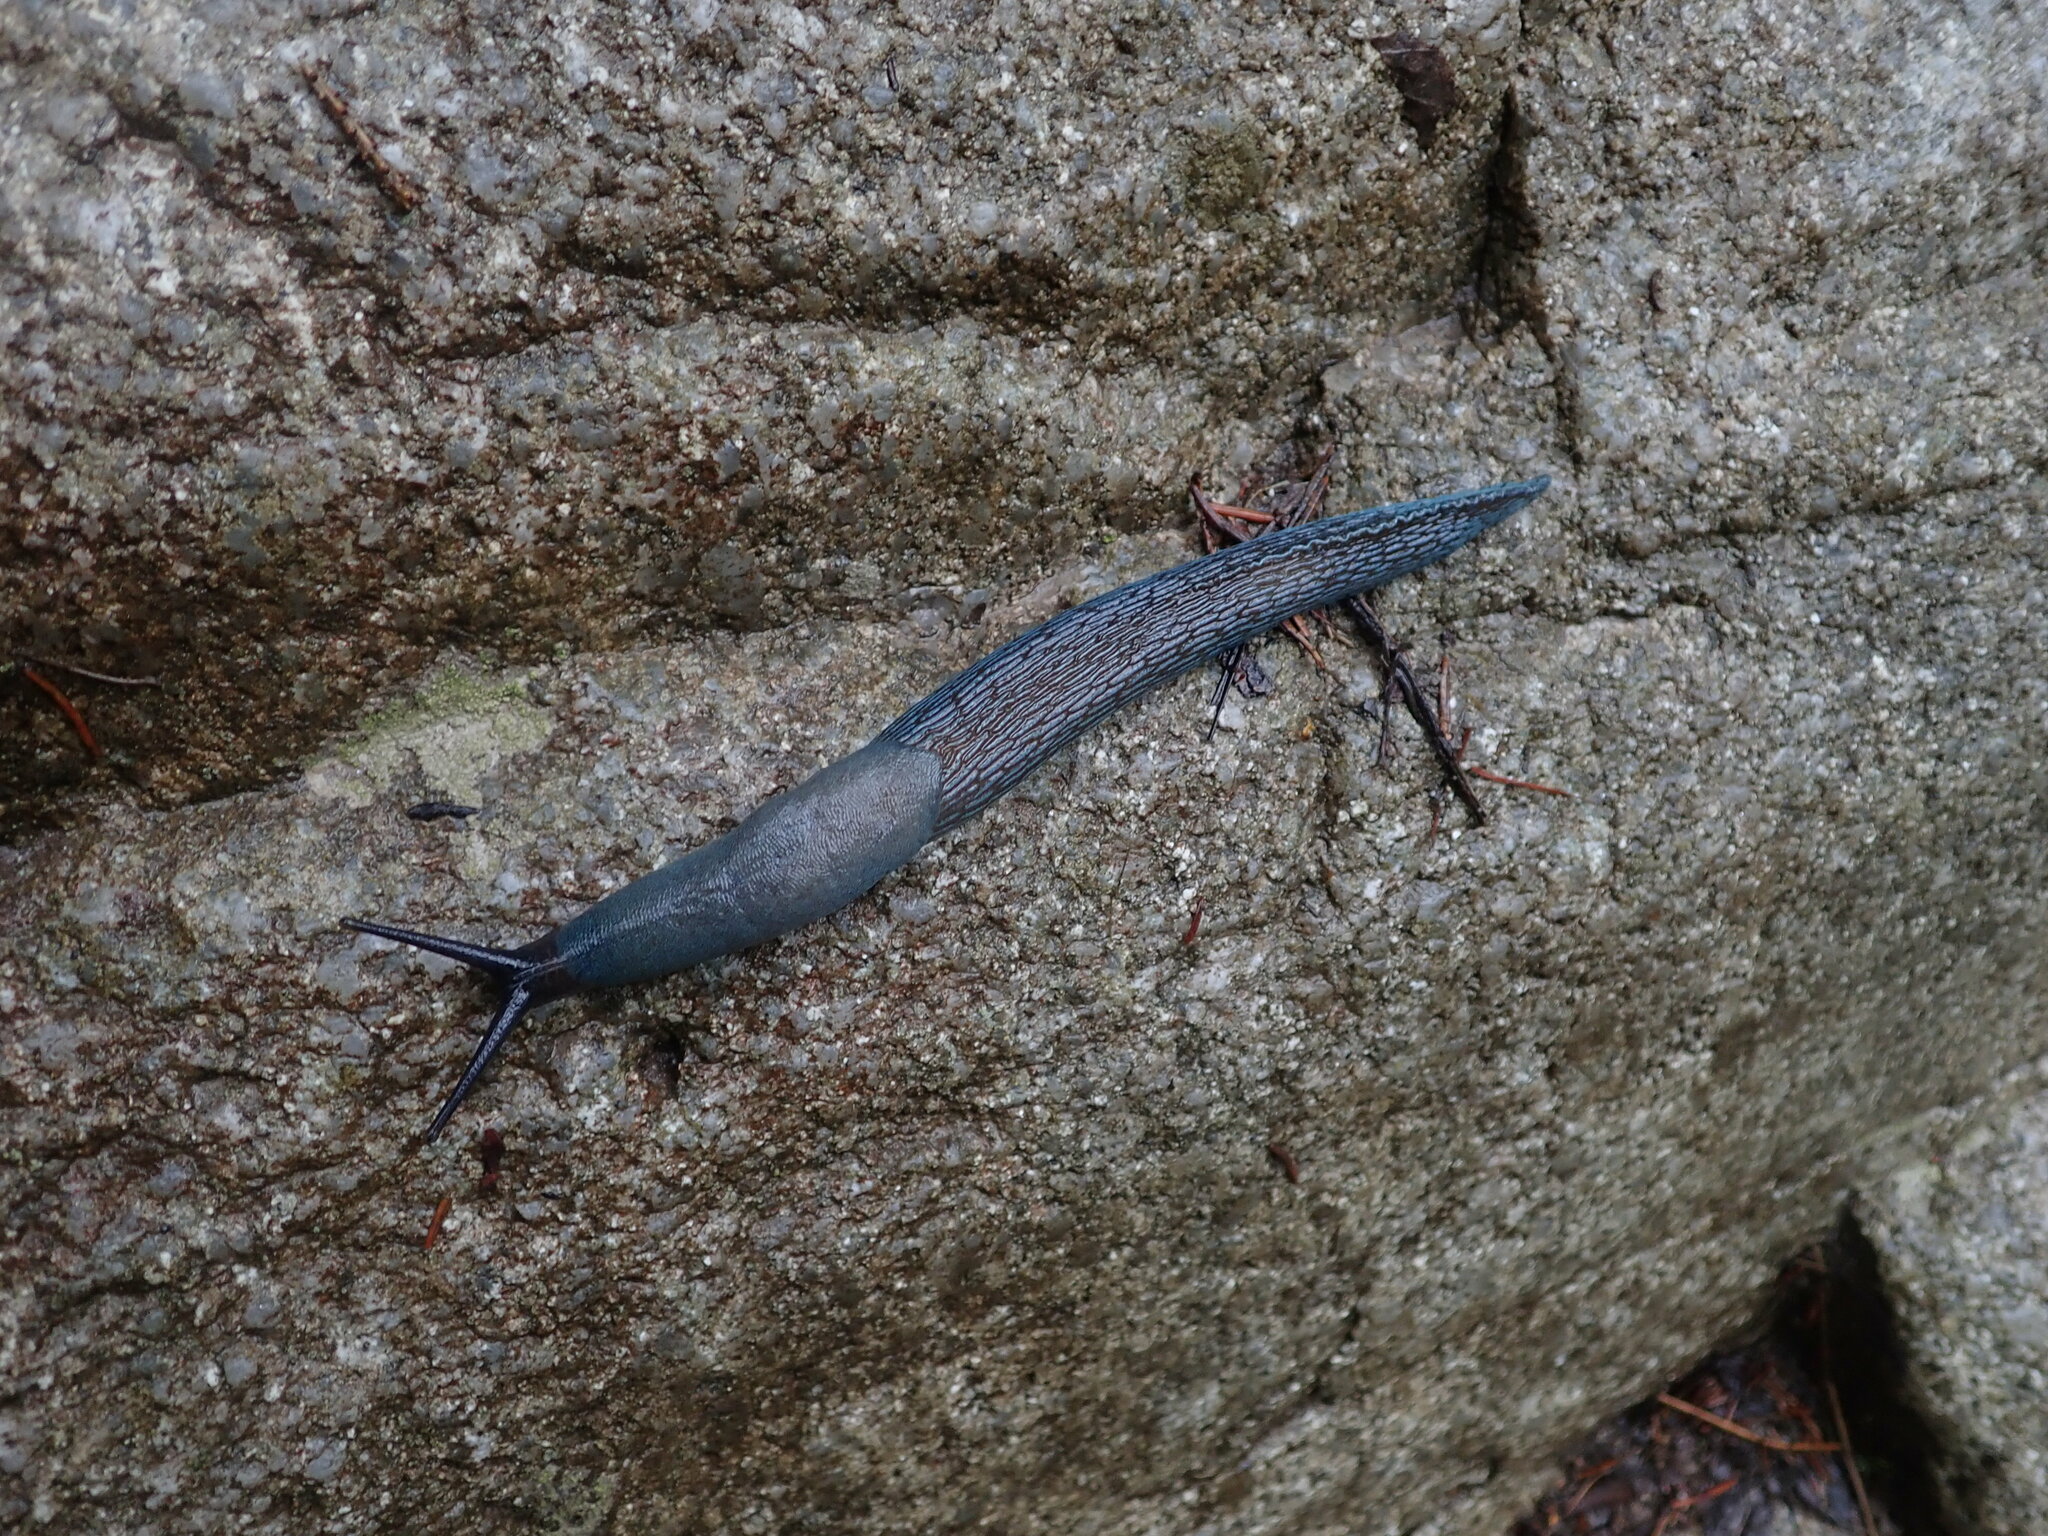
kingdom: Animalia
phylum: Mollusca
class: Gastropoda
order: Stylommatophora
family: Limacidae
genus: Bielzia
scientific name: Bielzia coerulans
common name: Carpathian blue slug
